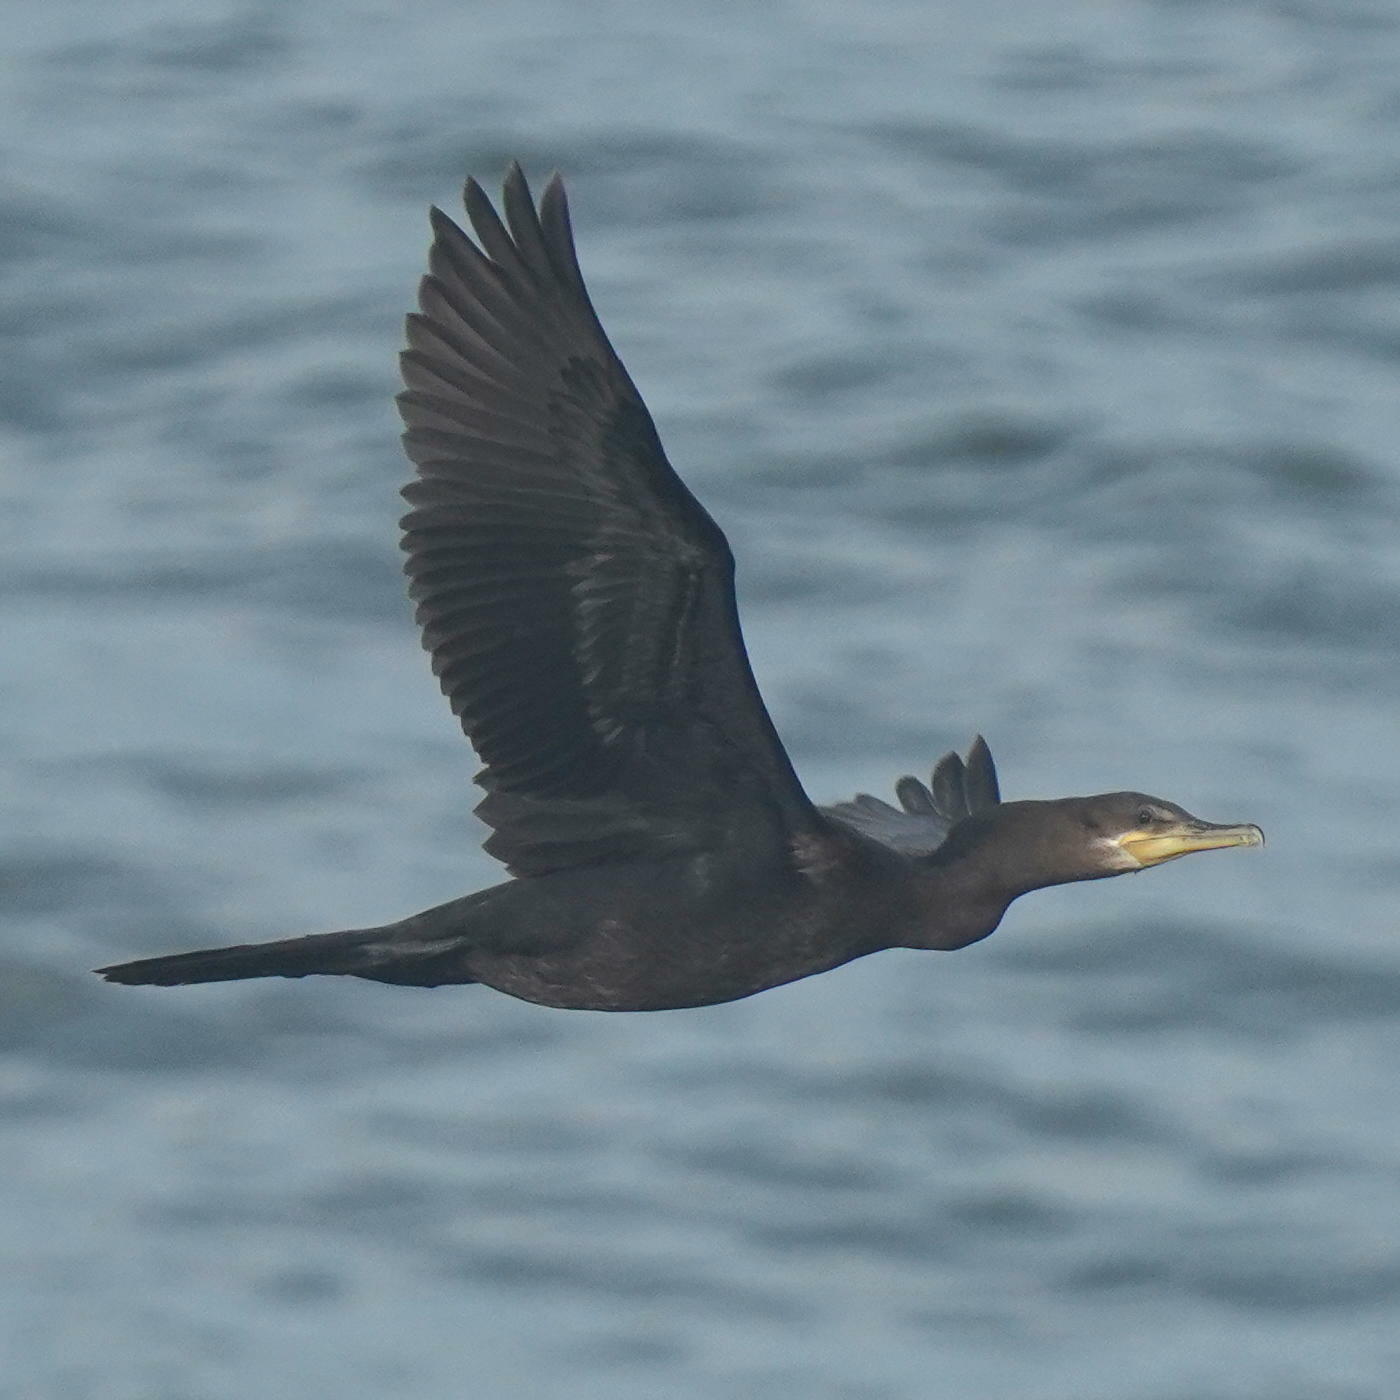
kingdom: Animalia
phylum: Chordata
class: Aves
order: Suliformes
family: Phalacrocoracidae
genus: Phalacrocorax
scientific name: Phalacrocorax brasilianus
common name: Neotropic cormorant
